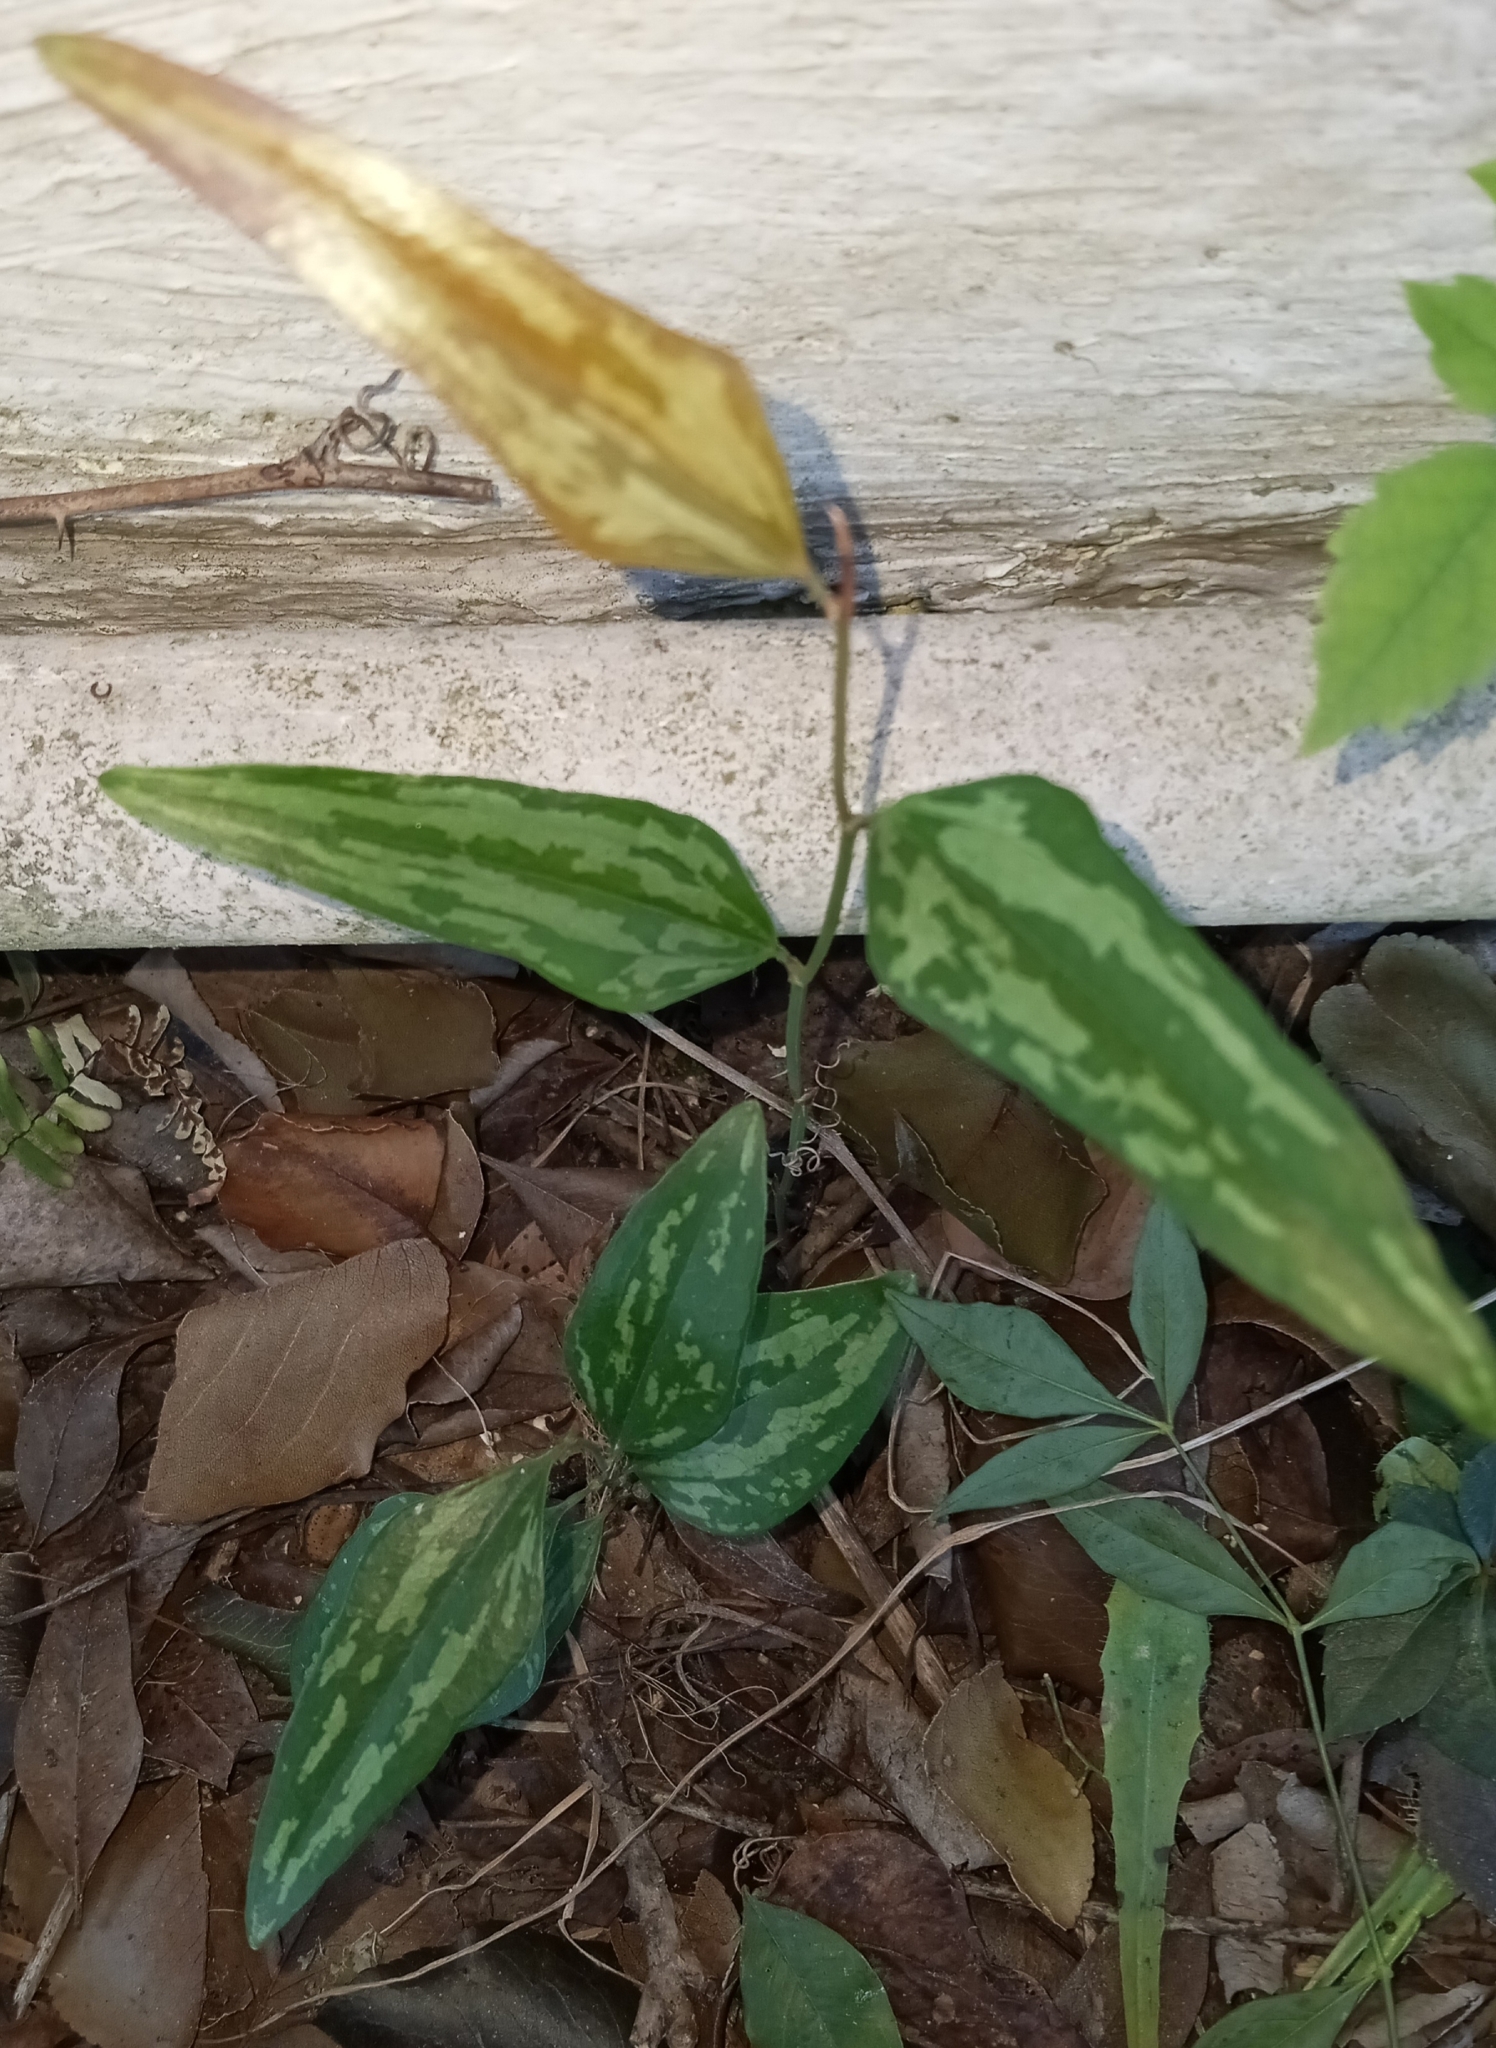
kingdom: Plantae
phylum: Tracheophyta
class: Liliopsida
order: Liliales
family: Smilacaceae
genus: Smilax
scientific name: Smilax maritima
